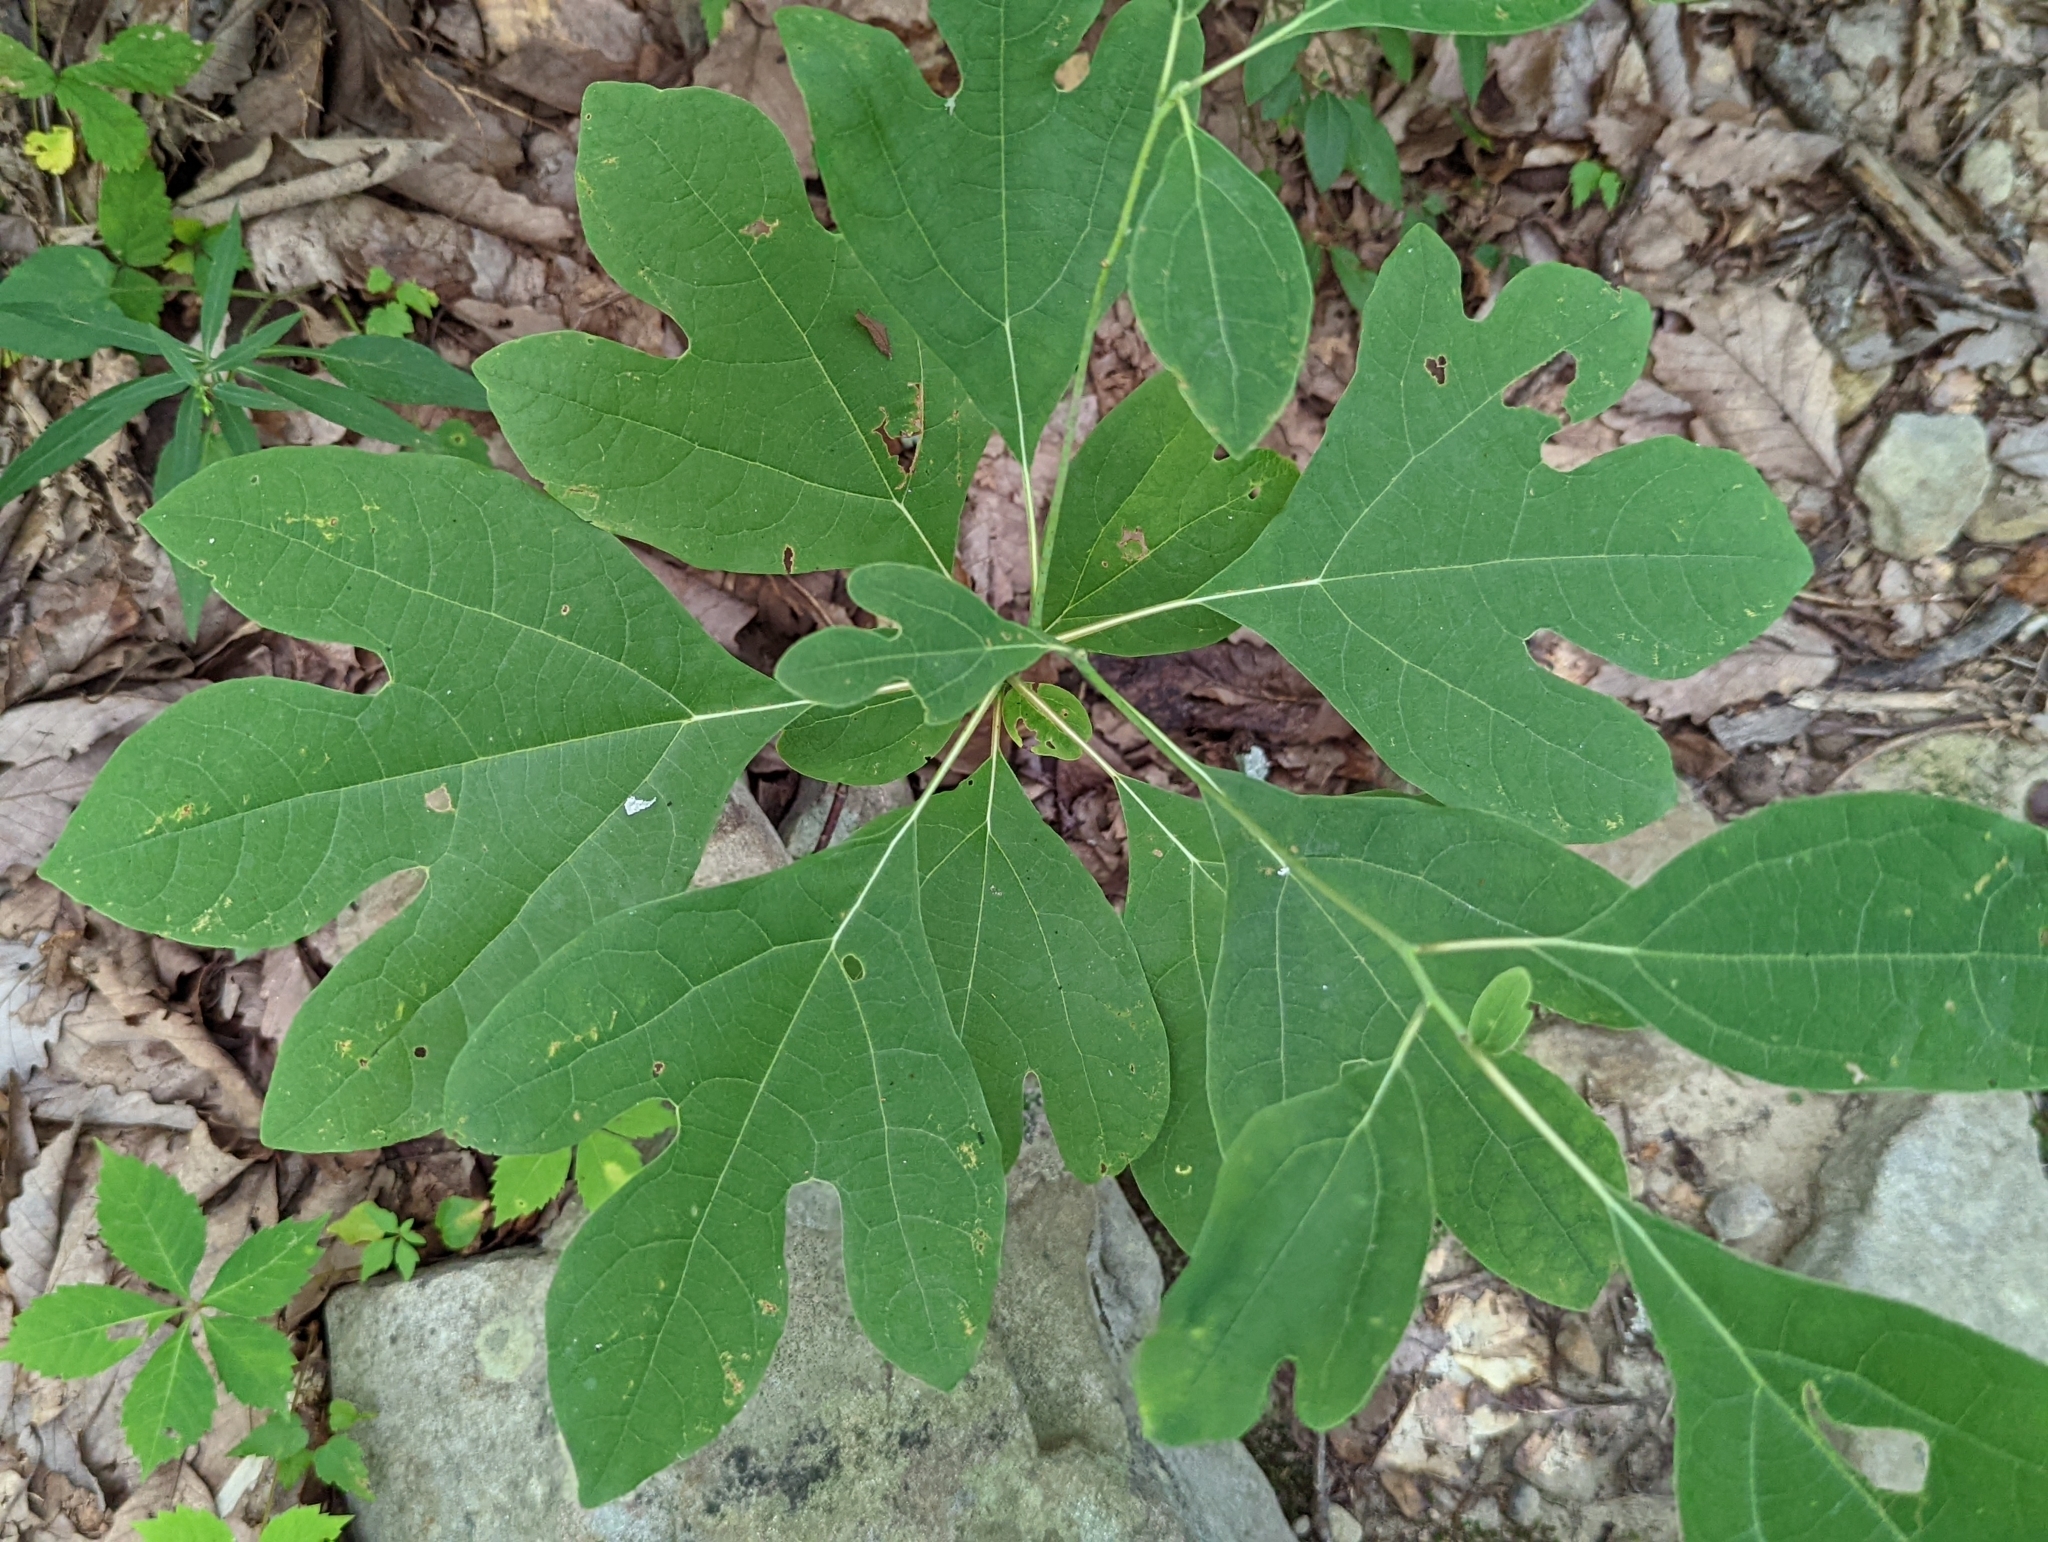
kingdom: Plantae
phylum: Tracheophyta
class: Magnoliopsida
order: Laurales
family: Lauraceae
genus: Sassafras
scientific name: Sassafras albidum
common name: Sassafras
